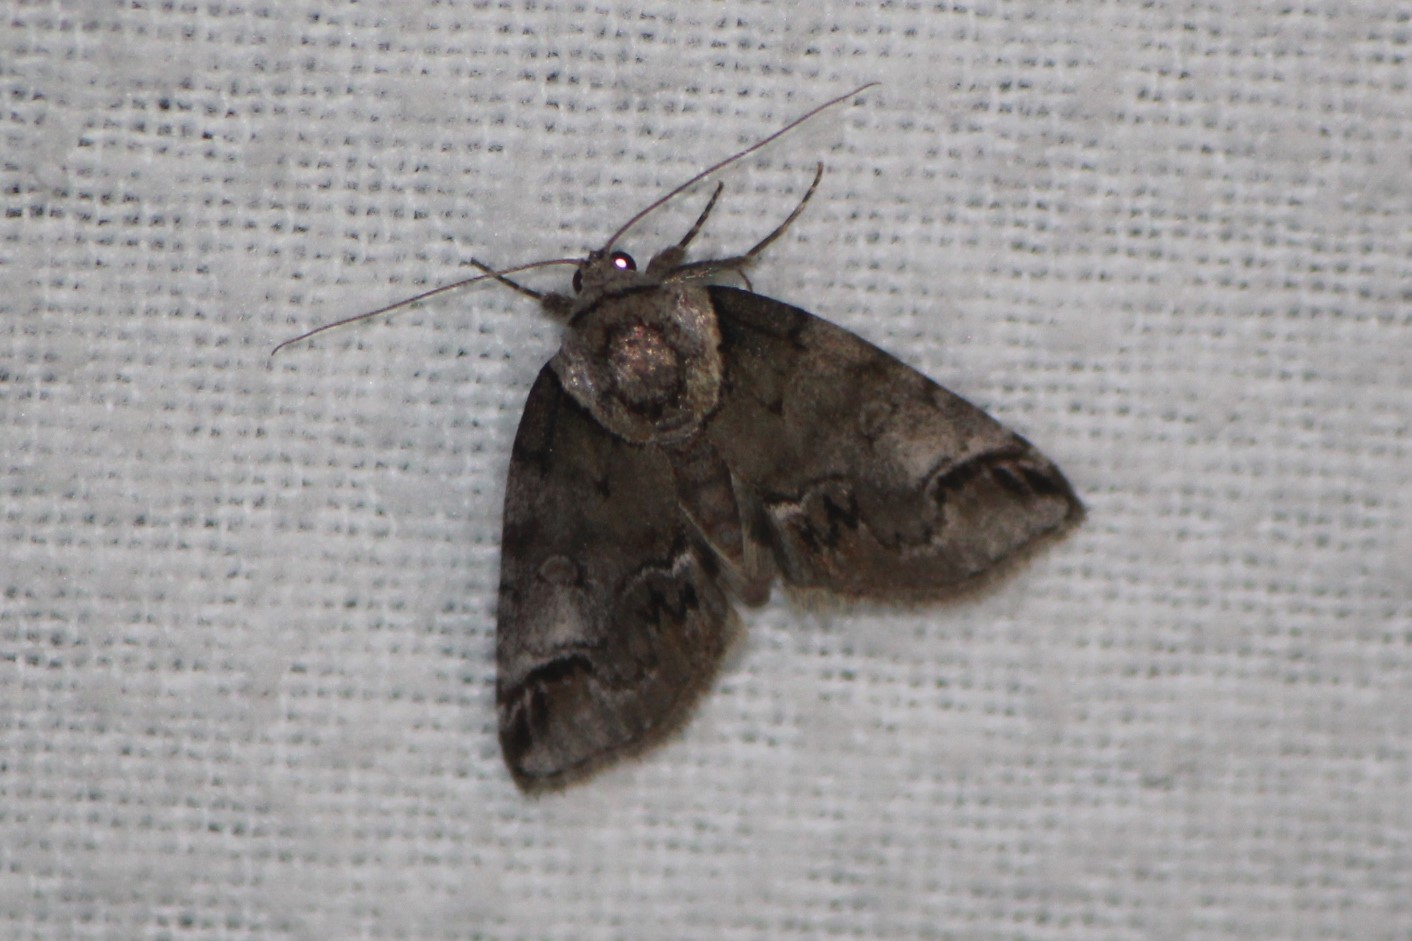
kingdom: Animalia
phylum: Arthropoda
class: Insecta
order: Lepidoptera
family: Nolidae
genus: Baileya
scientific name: Baileya ophthalmica
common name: Eyed baileya moth
